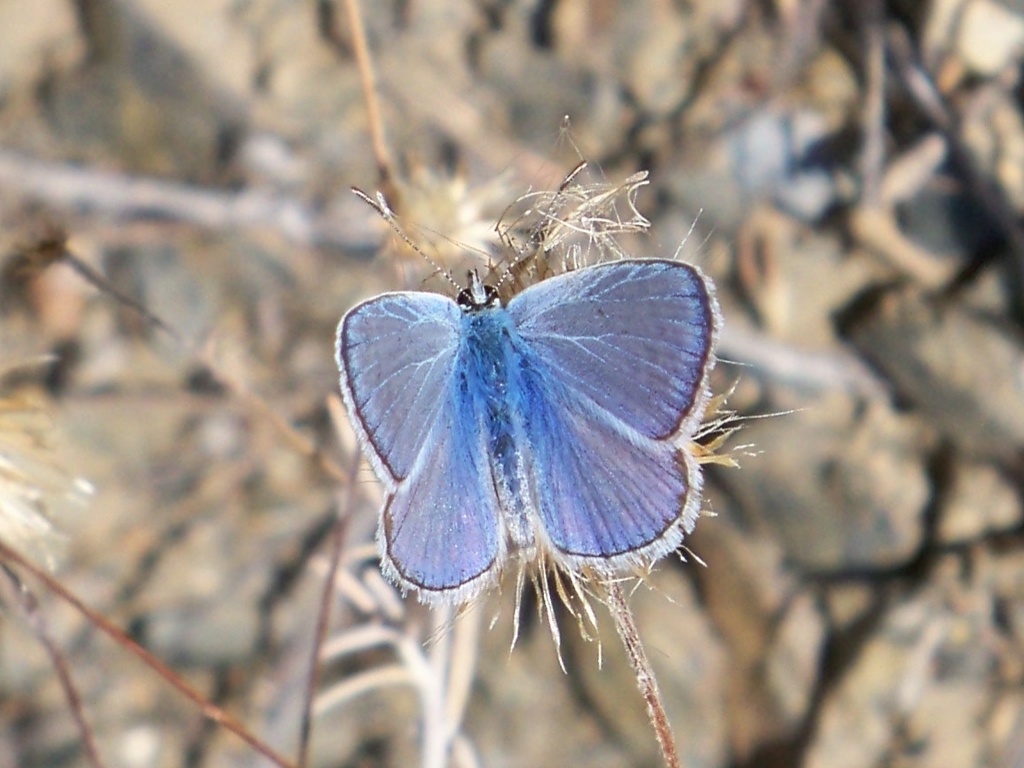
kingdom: Animalia
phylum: Arthropoda
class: Insecta
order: Lepidoptera
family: Lycaenidae
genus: Polyommatus
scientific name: Polyommatus celina
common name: Austaut's blue
